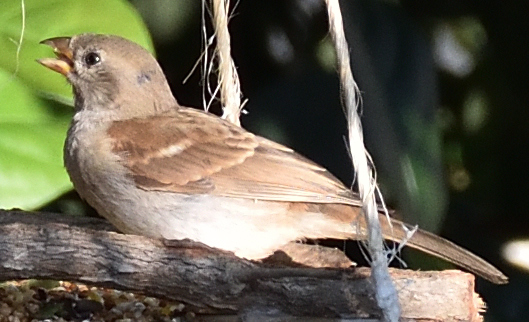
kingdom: Animalia
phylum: Chordata
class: Aves
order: Passeriformes
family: Passeridae
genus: Passer
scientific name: Passer diffusus
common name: Southern grey-headed sparrow
